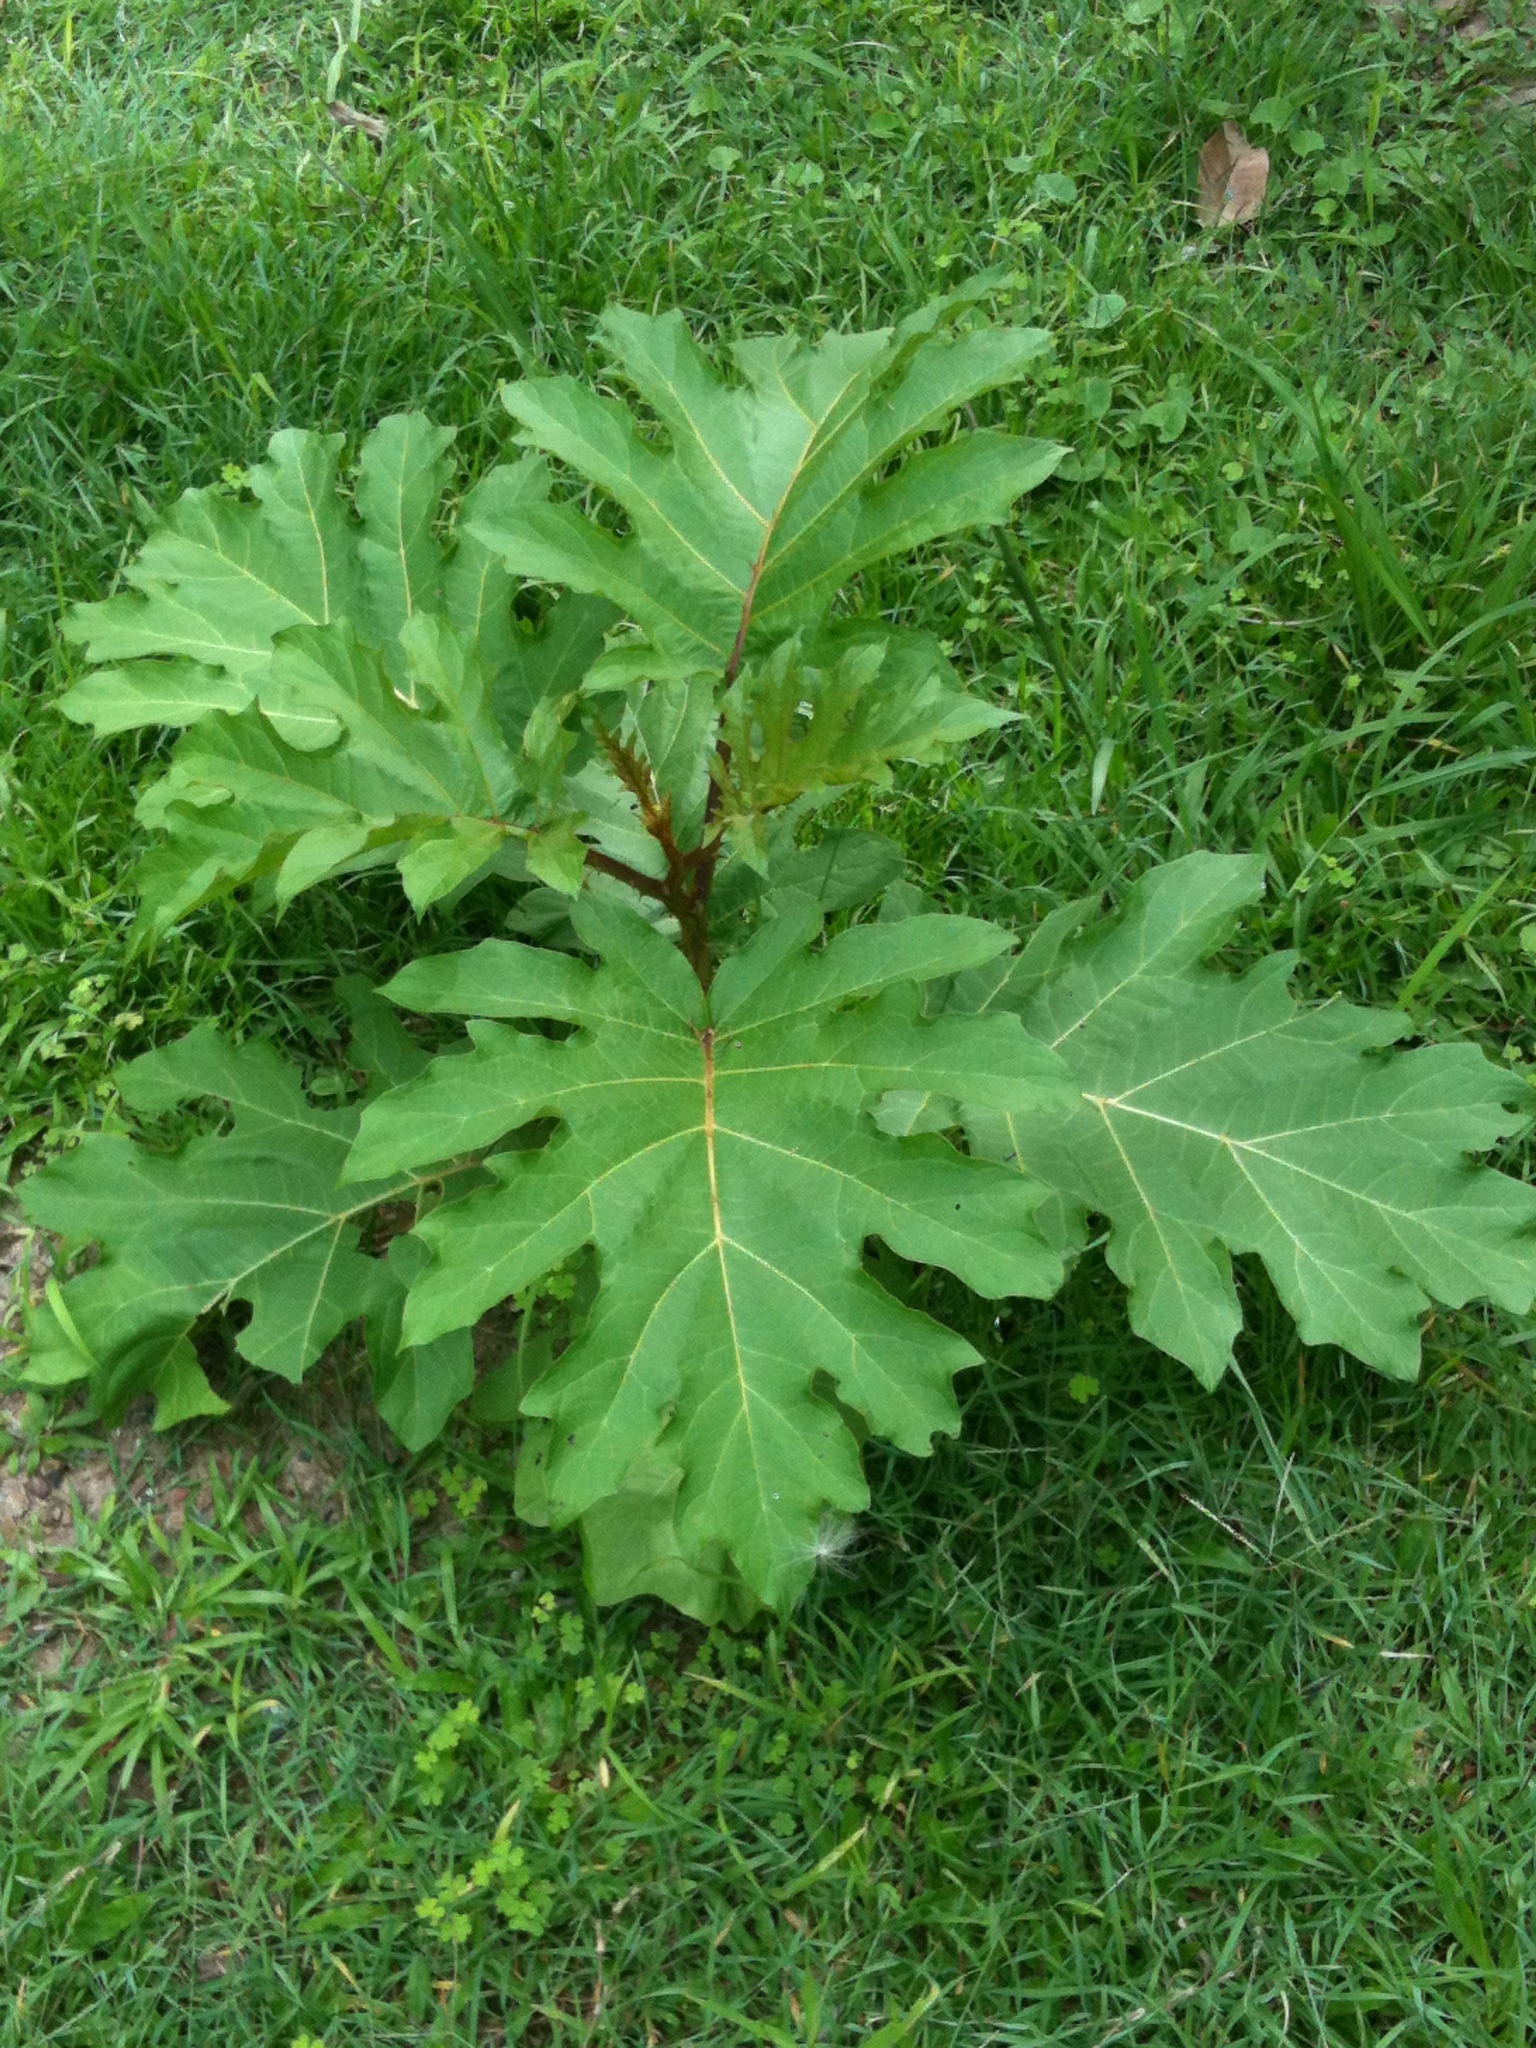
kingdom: Plantae
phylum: Tracheophyta
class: Magnoliopsida
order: Solanales
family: Solanaceae
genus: Solanum
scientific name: Solanum chrysotrichum
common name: Nightshade
